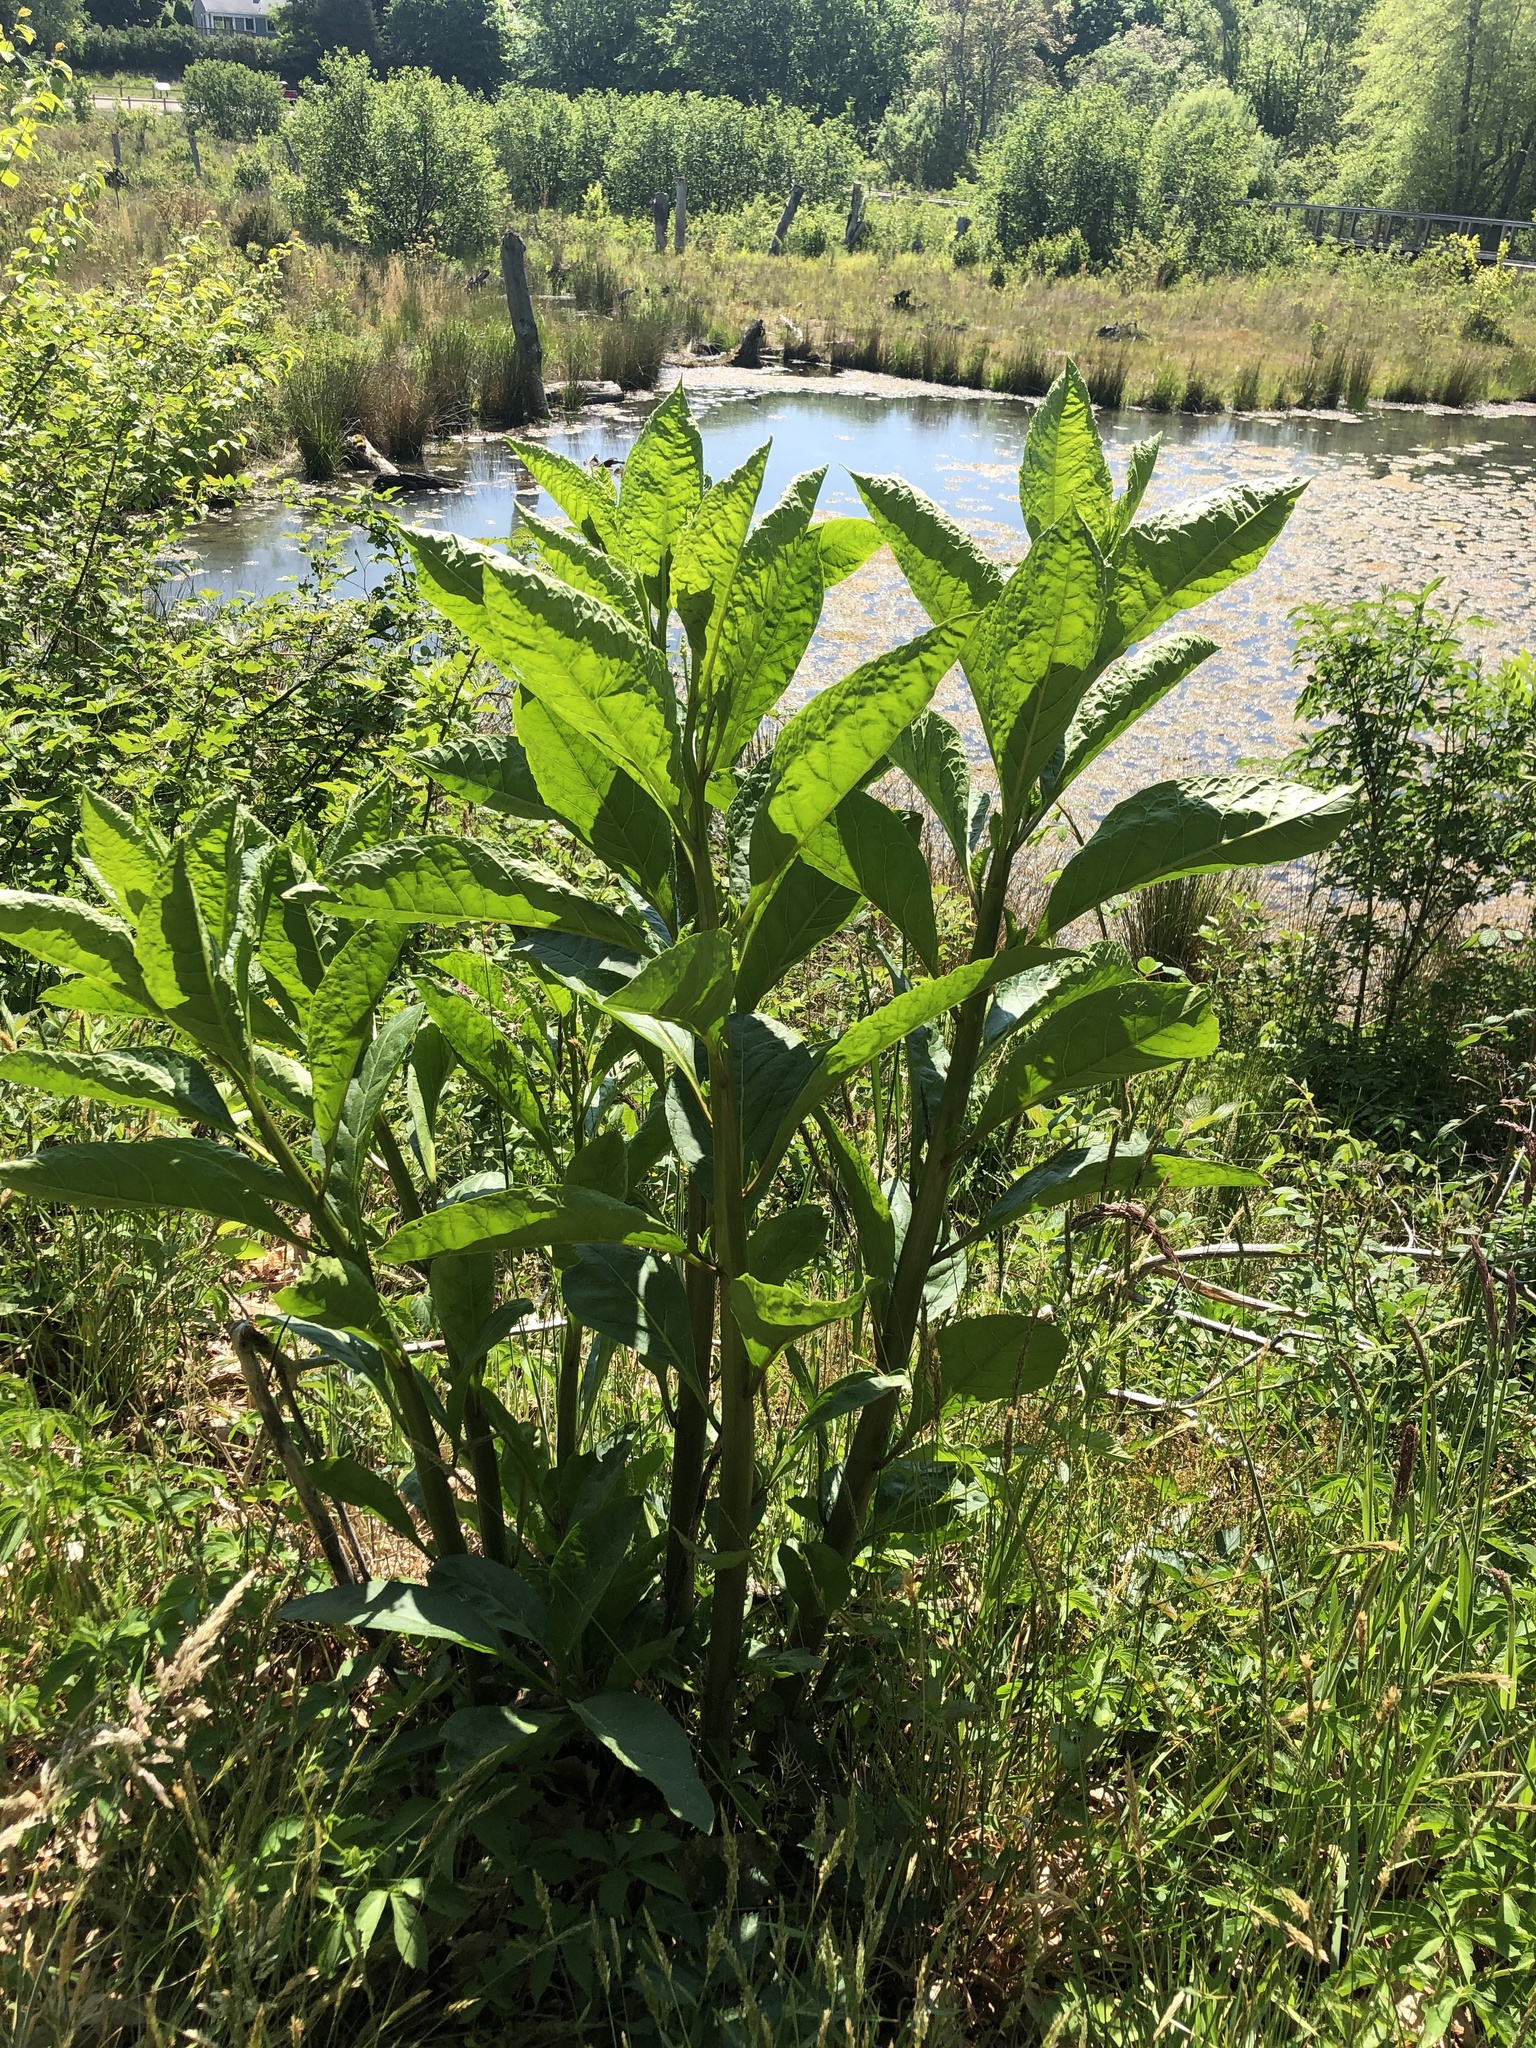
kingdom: Plantae
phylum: Tracheophyta
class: Magnoliopsida
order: Caryophyllales
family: Phytolaccaceae
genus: Phytolacca
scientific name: Phytolacca americana
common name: American pokeweed
